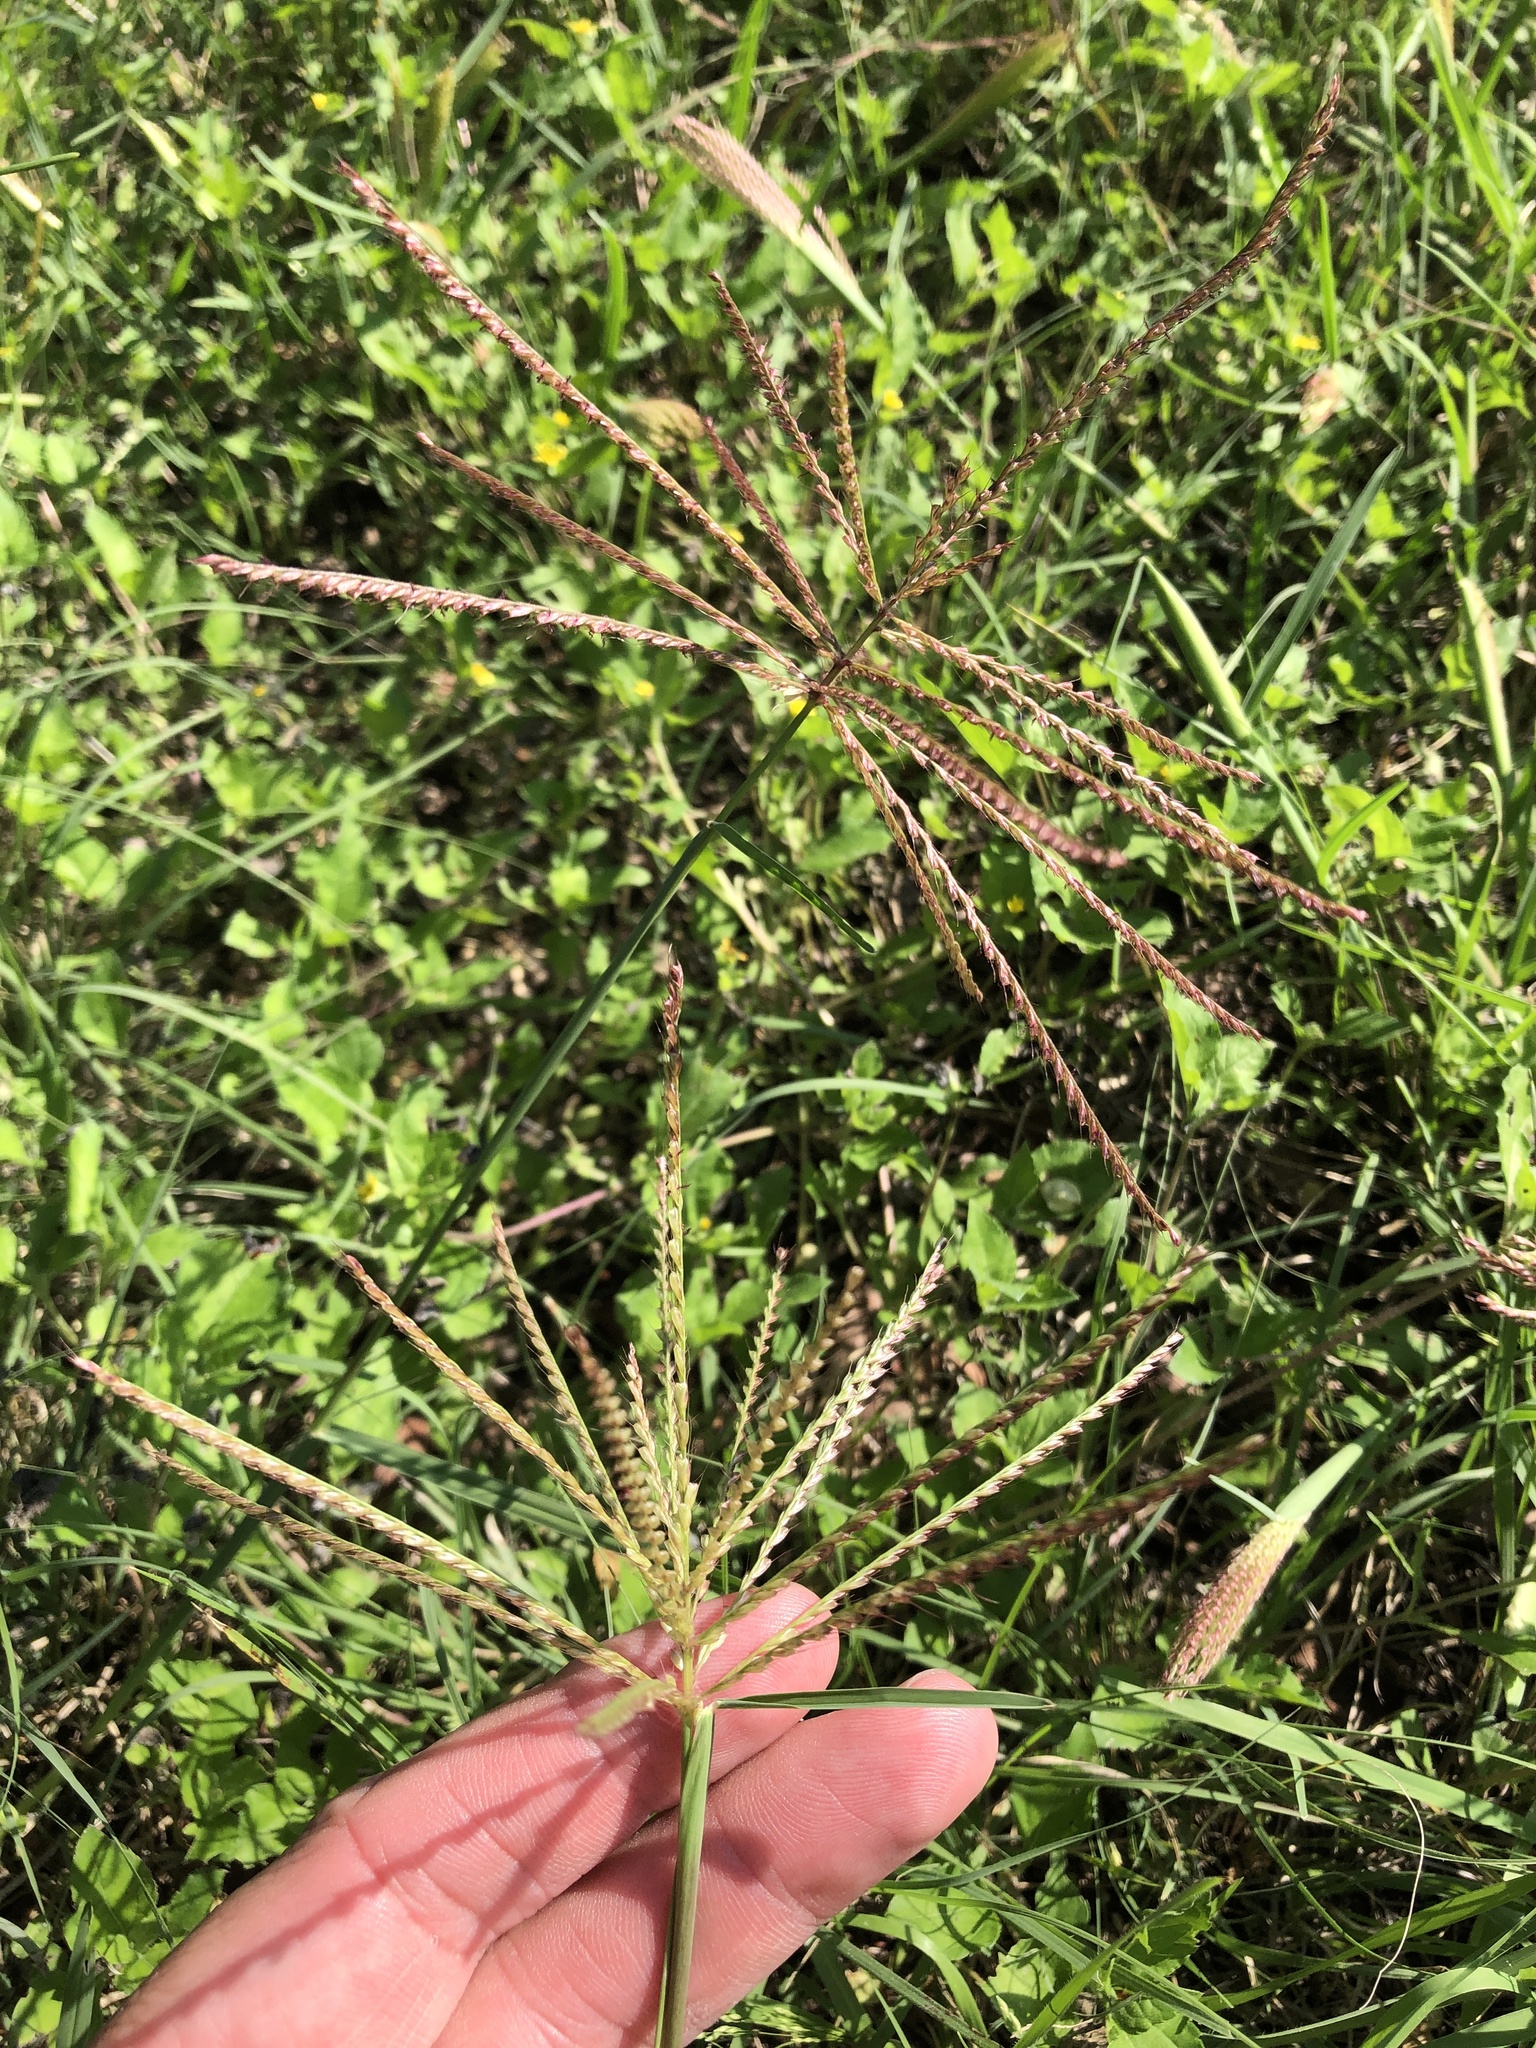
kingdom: Plantae
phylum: Tracheophyta
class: Liliopsida
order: Poales
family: Poaceae
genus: Chloris
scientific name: Chloris verticillata
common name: Tumble windmill grass
